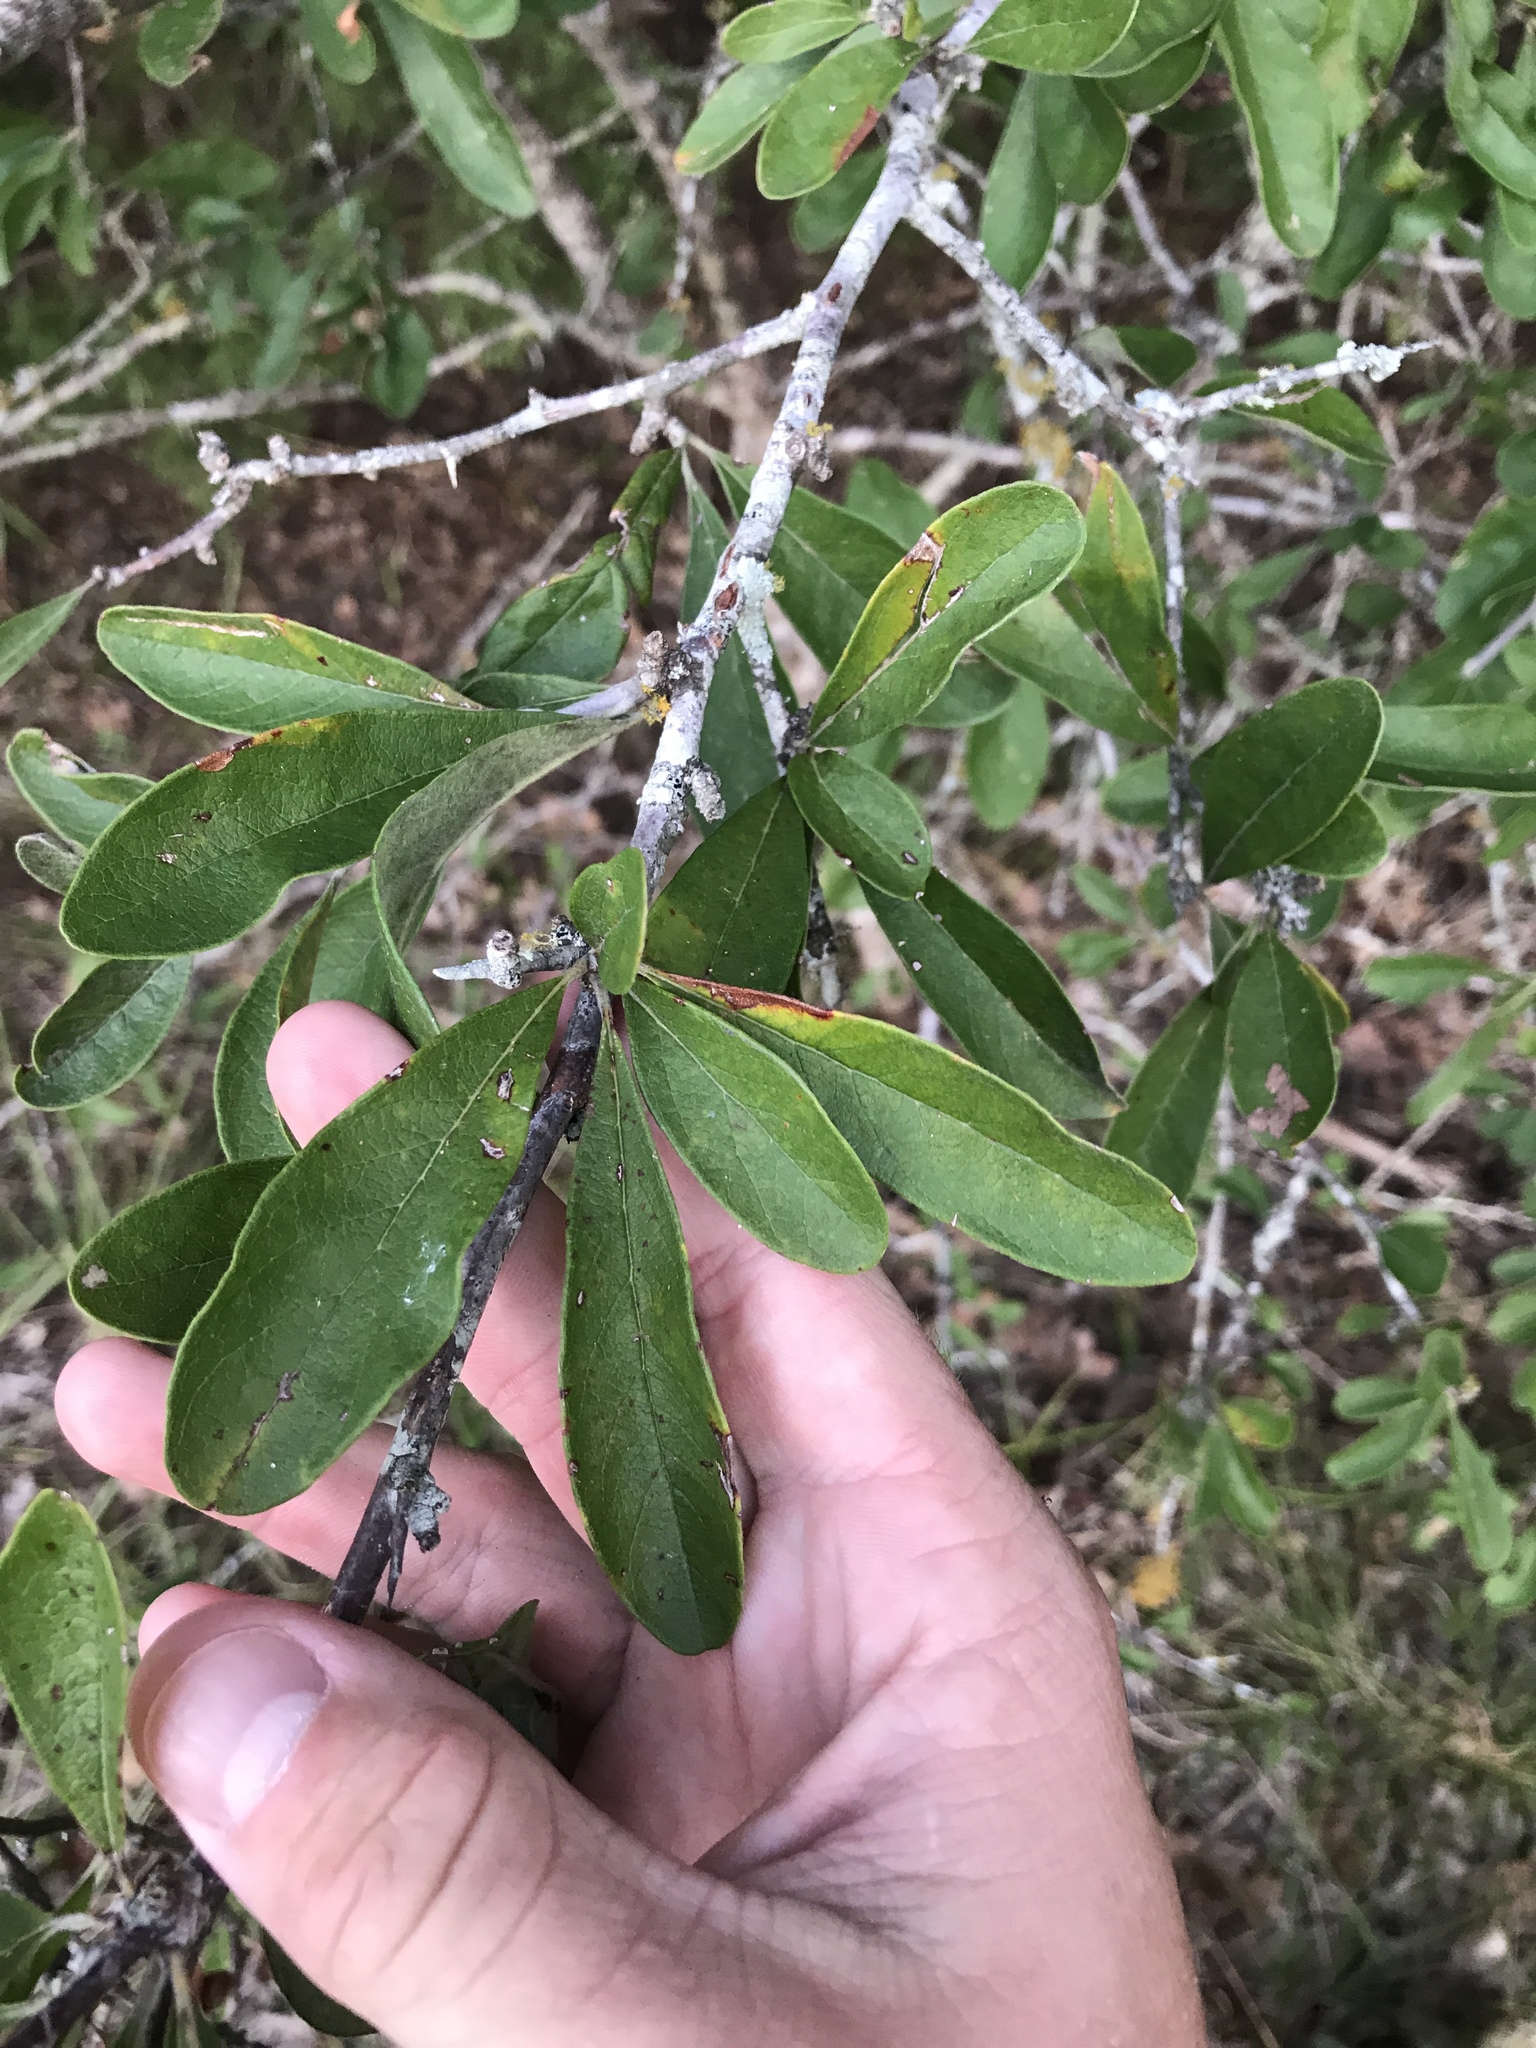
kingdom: Plantae
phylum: Tracheophyta
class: Magnoliopsida
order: Ericales
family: Sapotaceae
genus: Sideroxylon
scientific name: Sideroxylon lanuginosum
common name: Chittamwood
